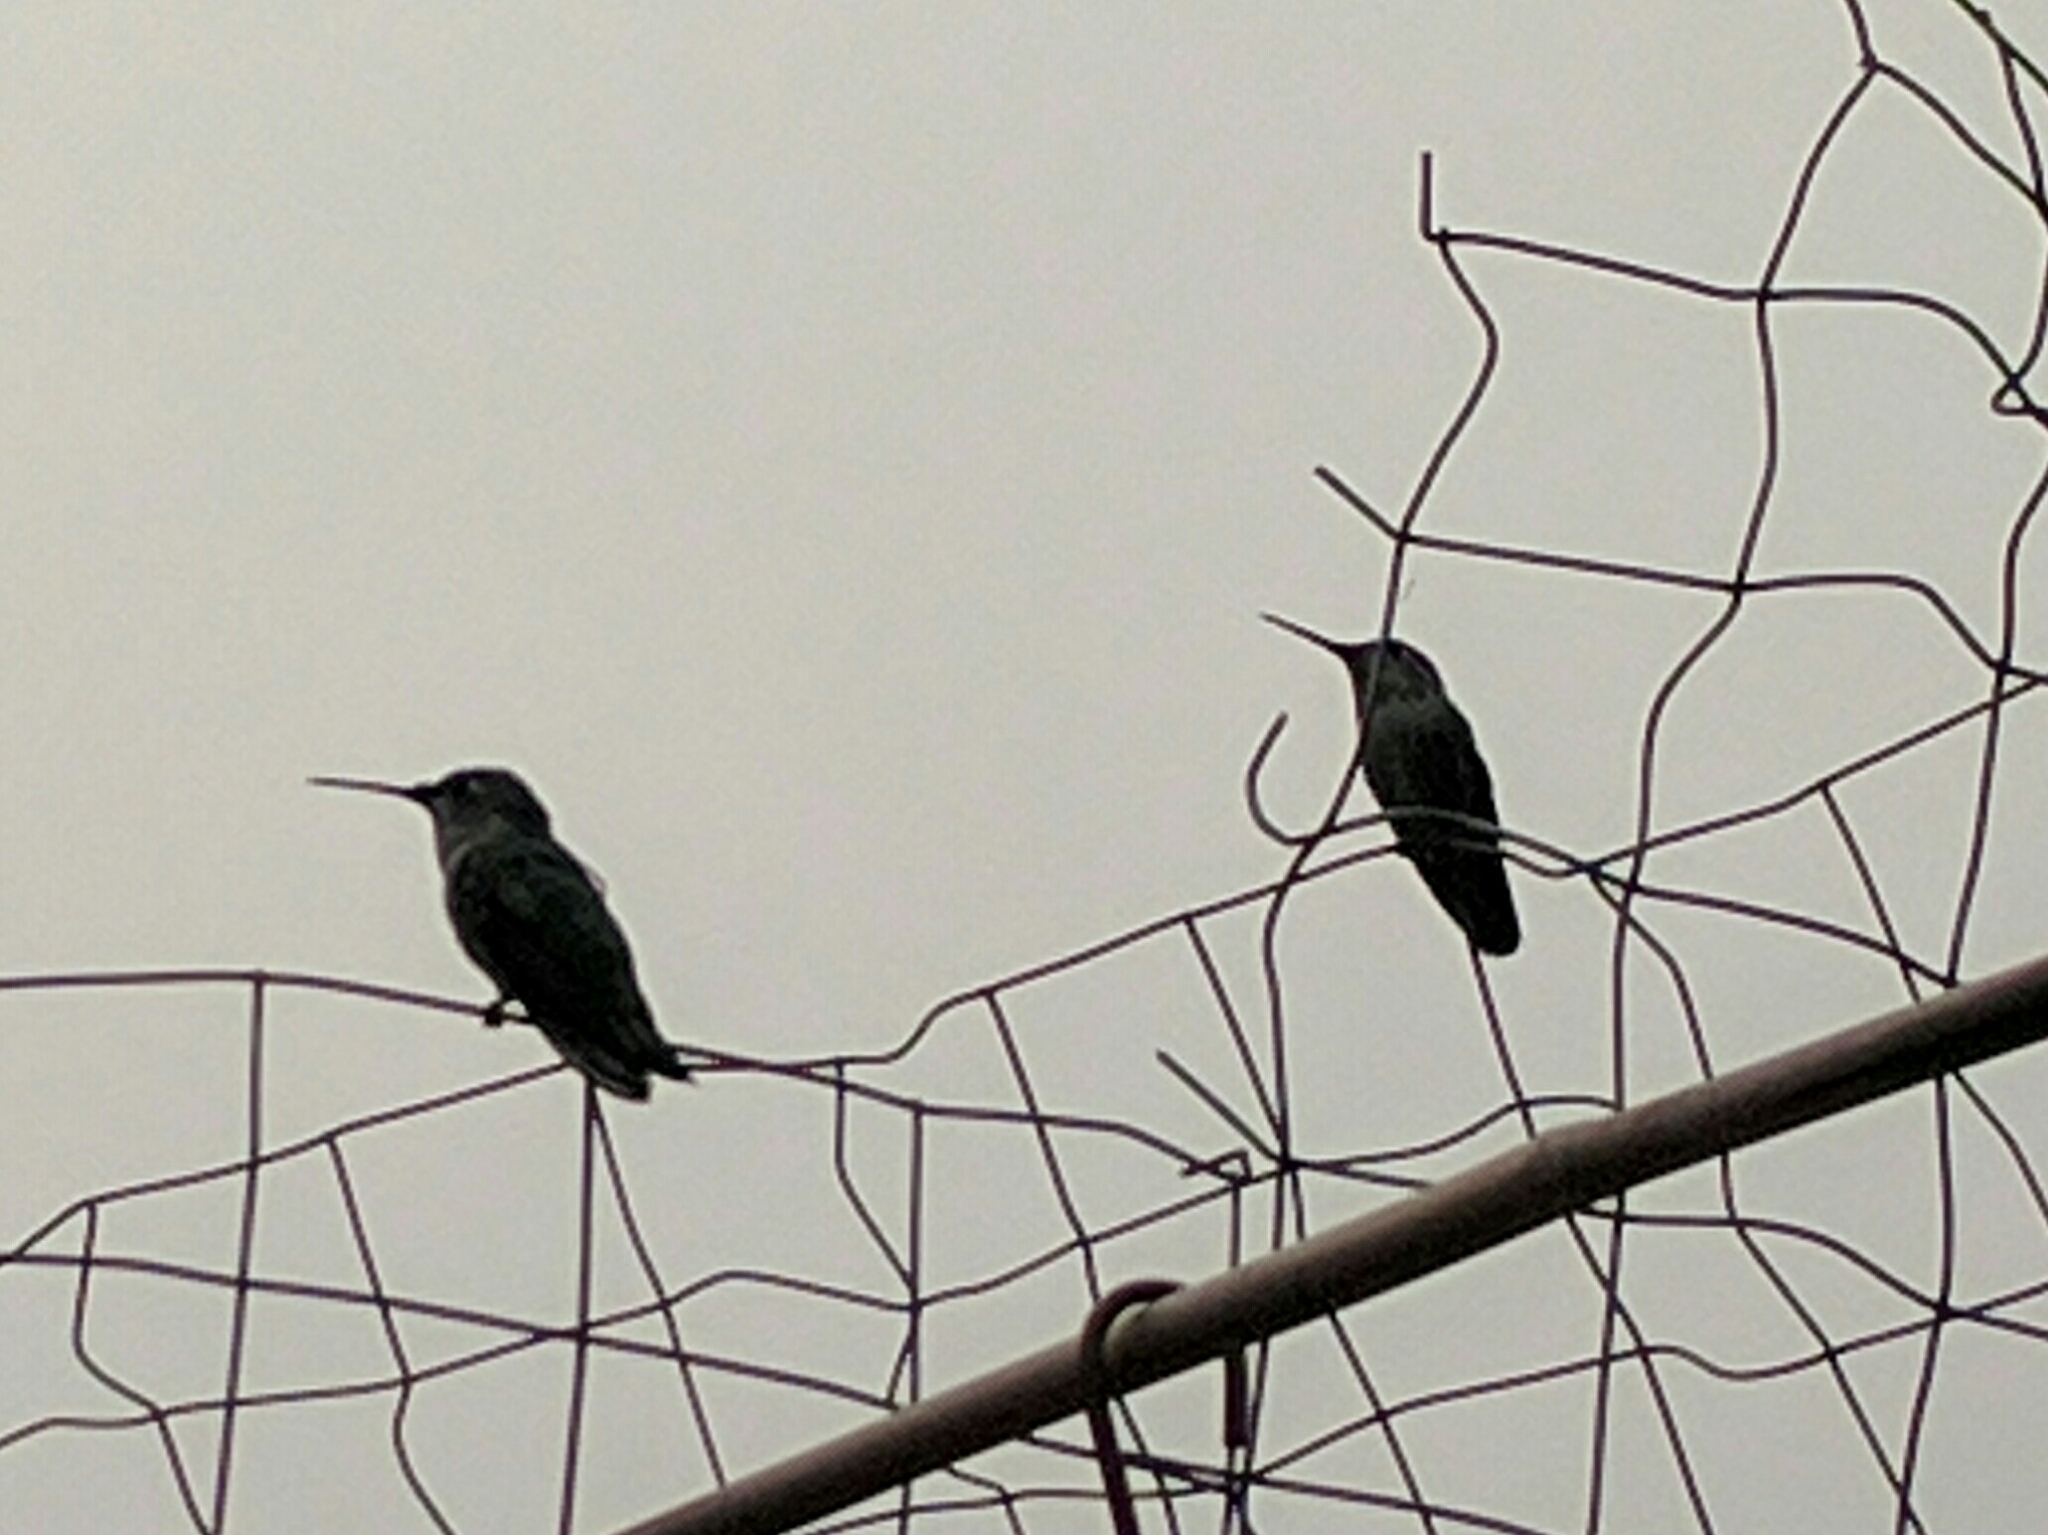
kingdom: Animalia
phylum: Chordata
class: Aves
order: Apodiformes
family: Trochilidae
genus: Calypte
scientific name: Calypte anna
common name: Anna's hummingbird
